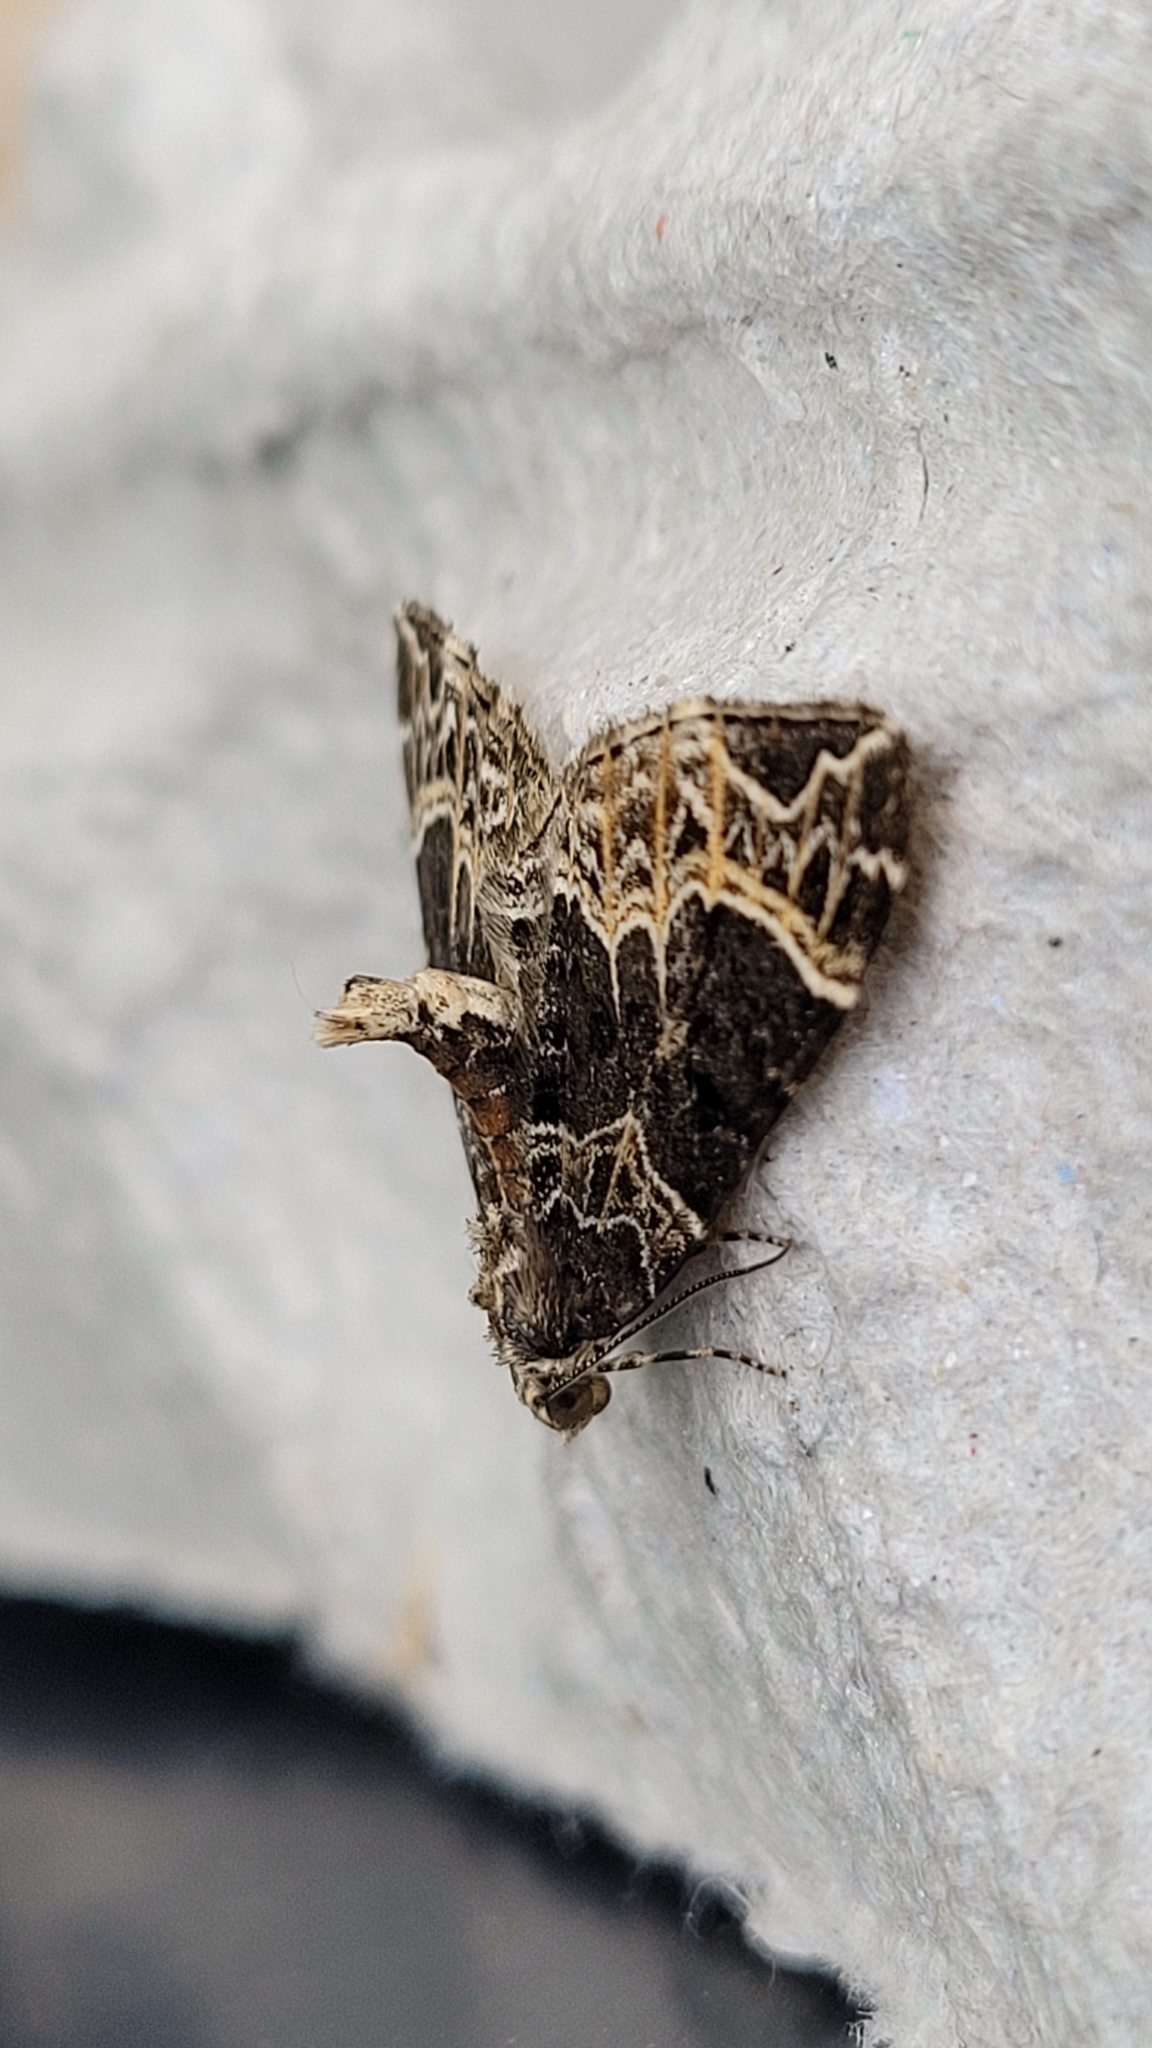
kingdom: Animalia
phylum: Arthropoda
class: Insecta
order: Lepidoptera
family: Geometridae
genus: Ecliptopera
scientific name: Ecliptopera silaceata
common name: Small phoenix
